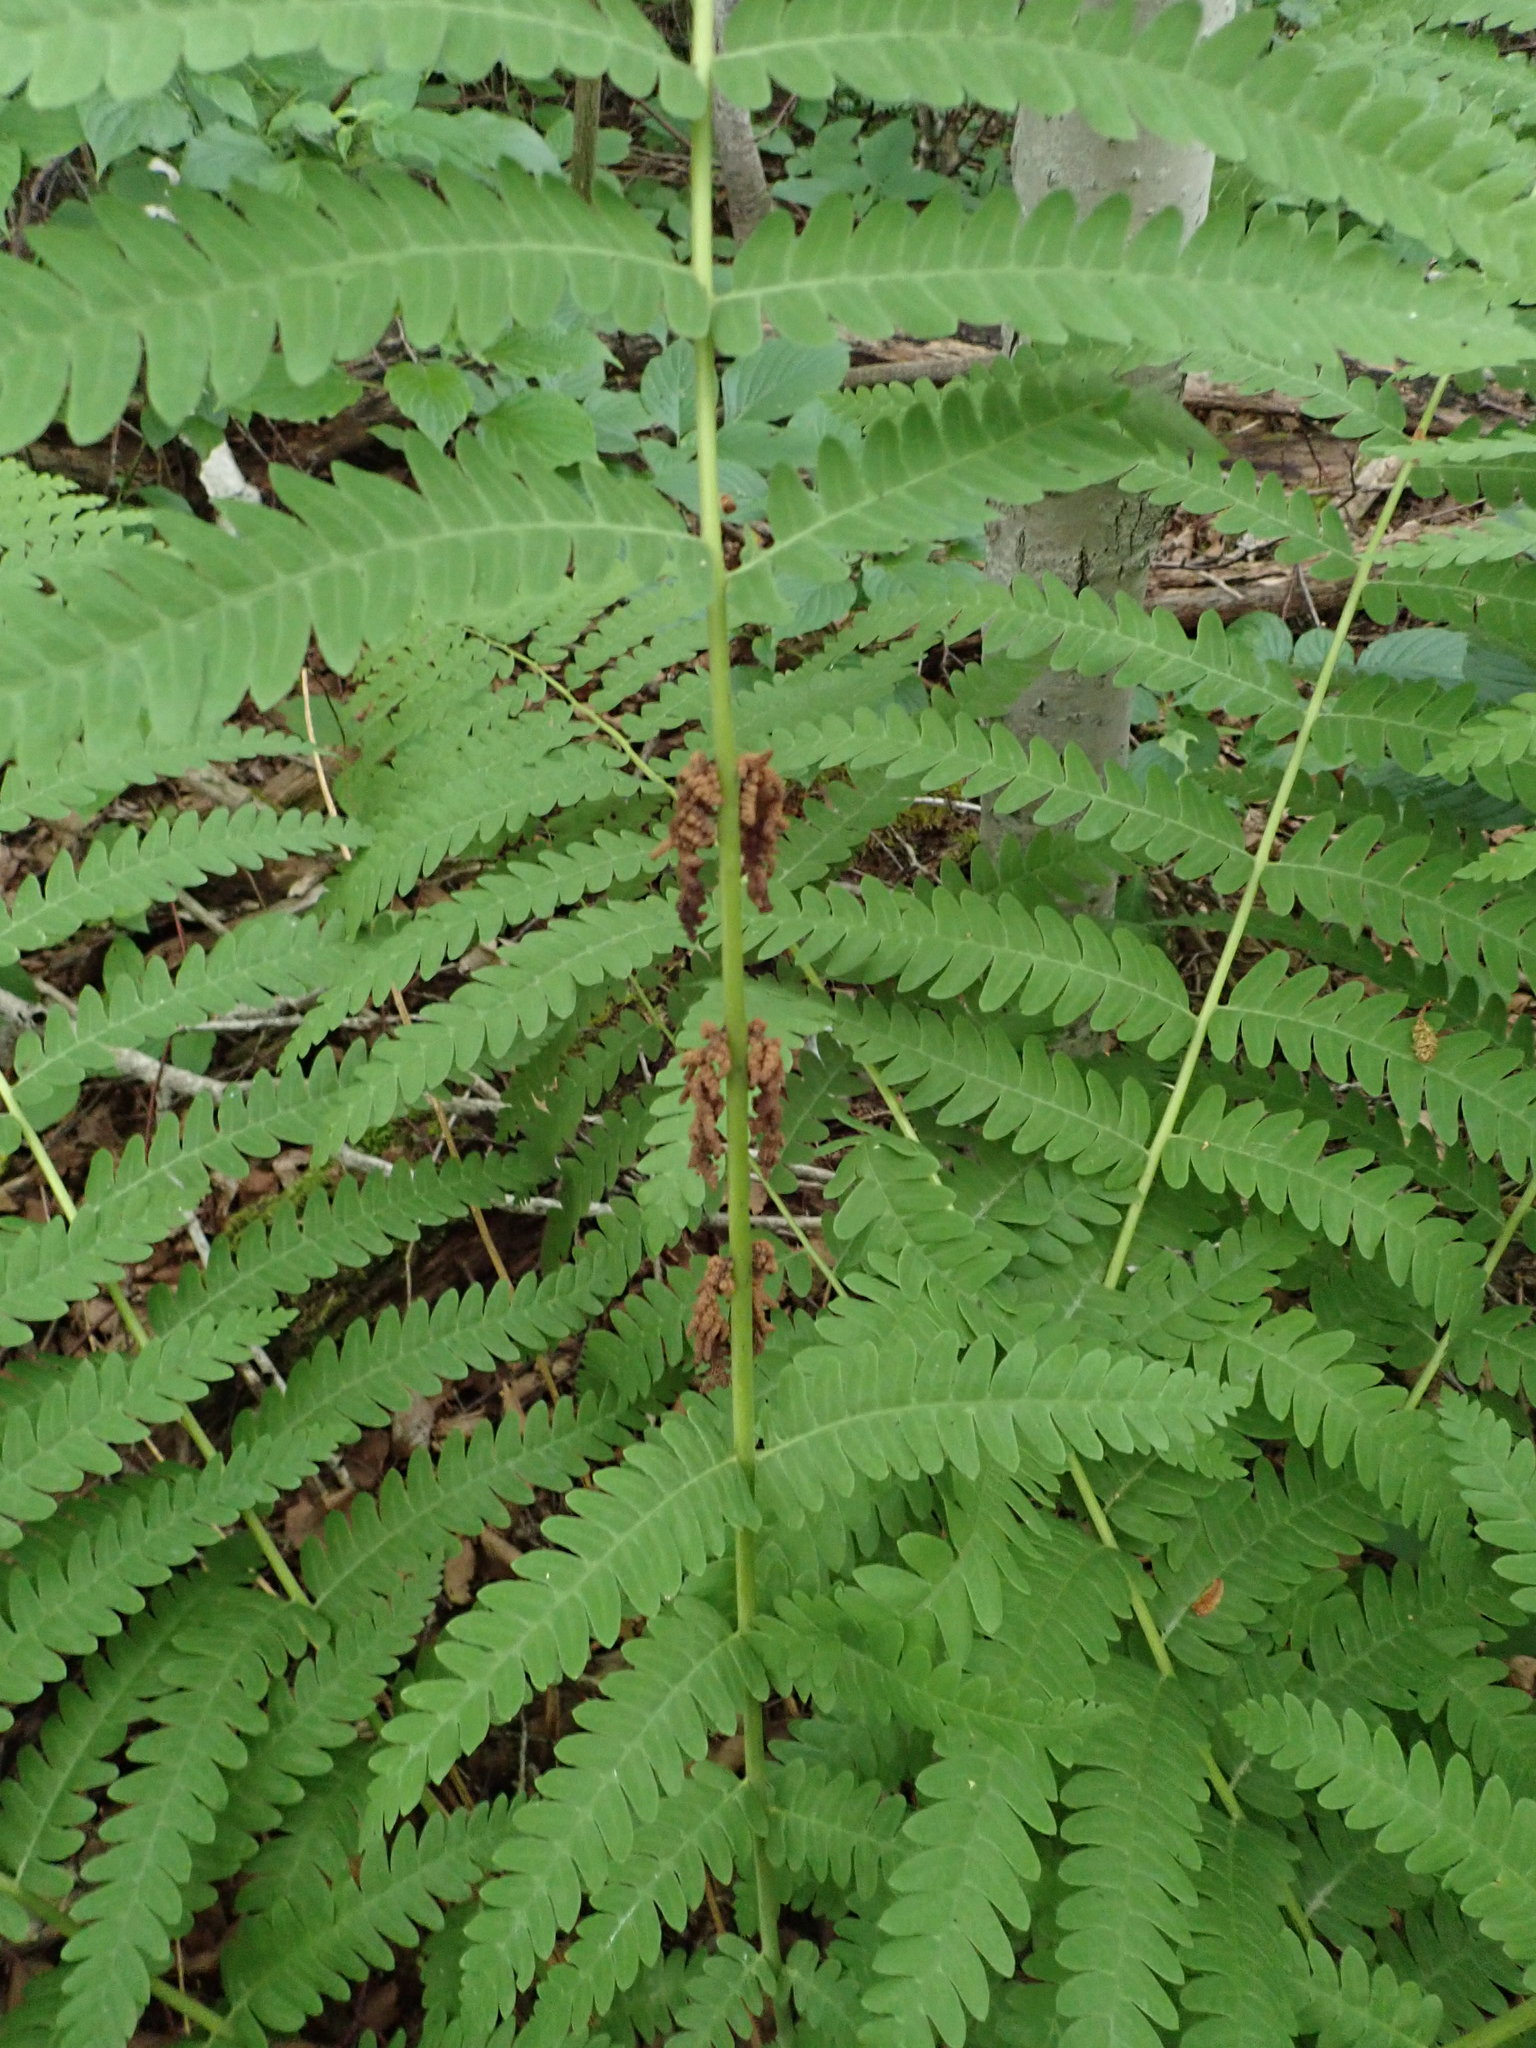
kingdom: Plantae
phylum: Tracheophyta
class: Polypodiopsida
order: Osmundales
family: Osmundaceae
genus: Claytosmunda
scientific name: Claytosmunda claytoniana
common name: Clayton's fern
